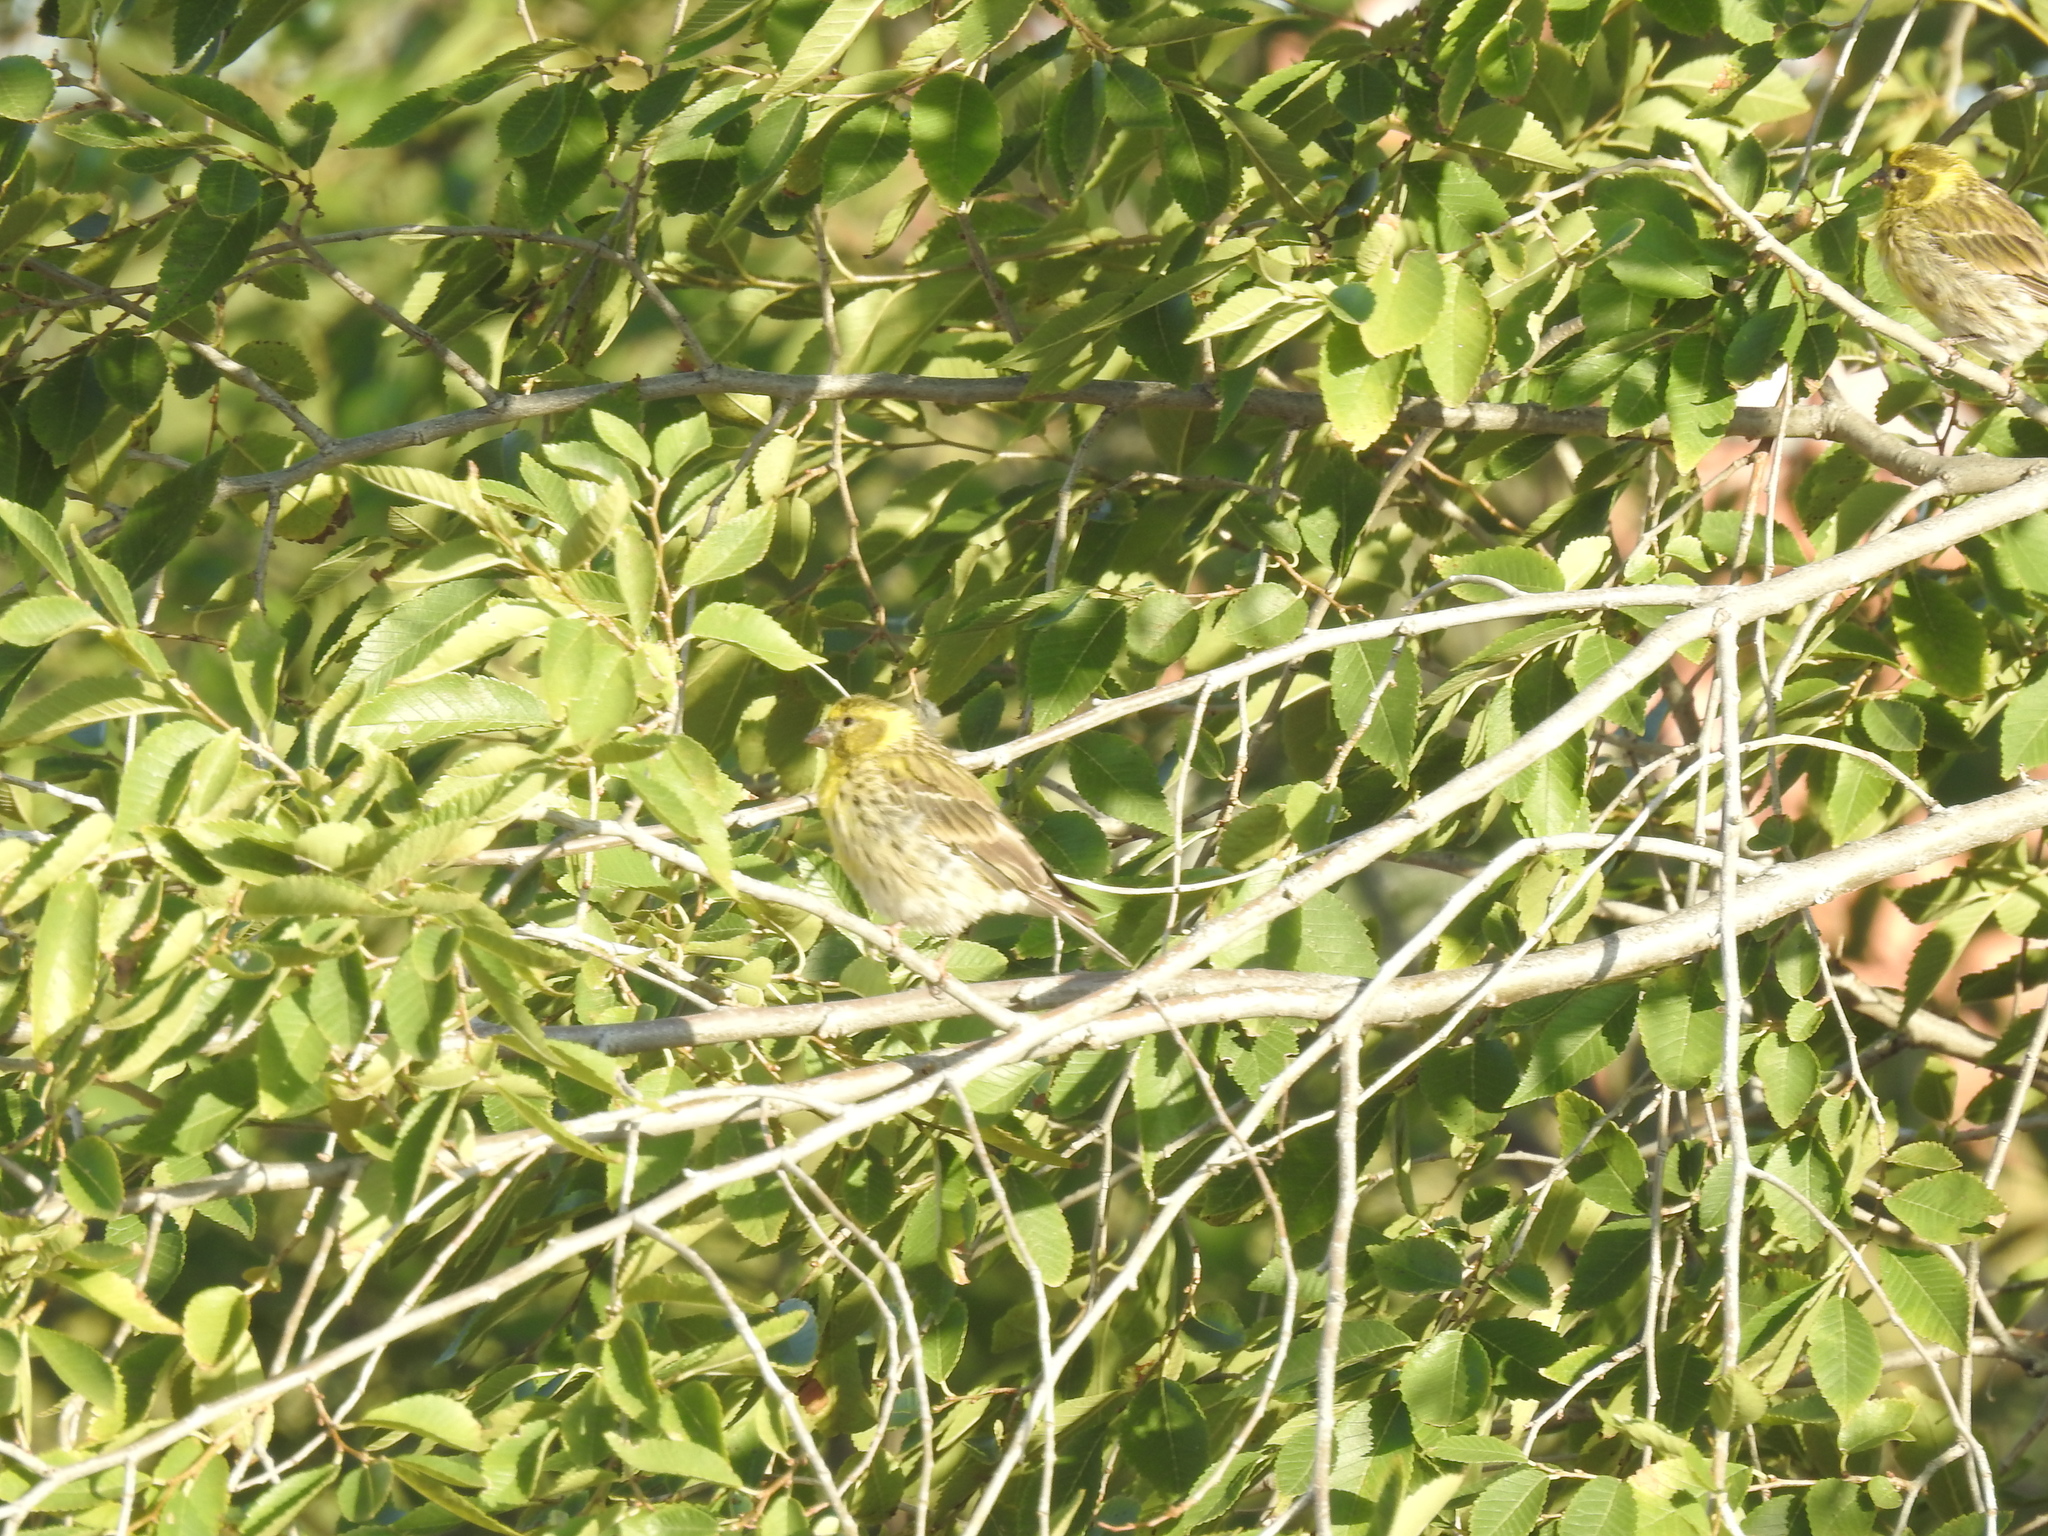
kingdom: Animalia
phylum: Chordata
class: Aves
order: Passeriformes
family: Fringillidae
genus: Serinus
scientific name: Serinus serinus
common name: European serin
